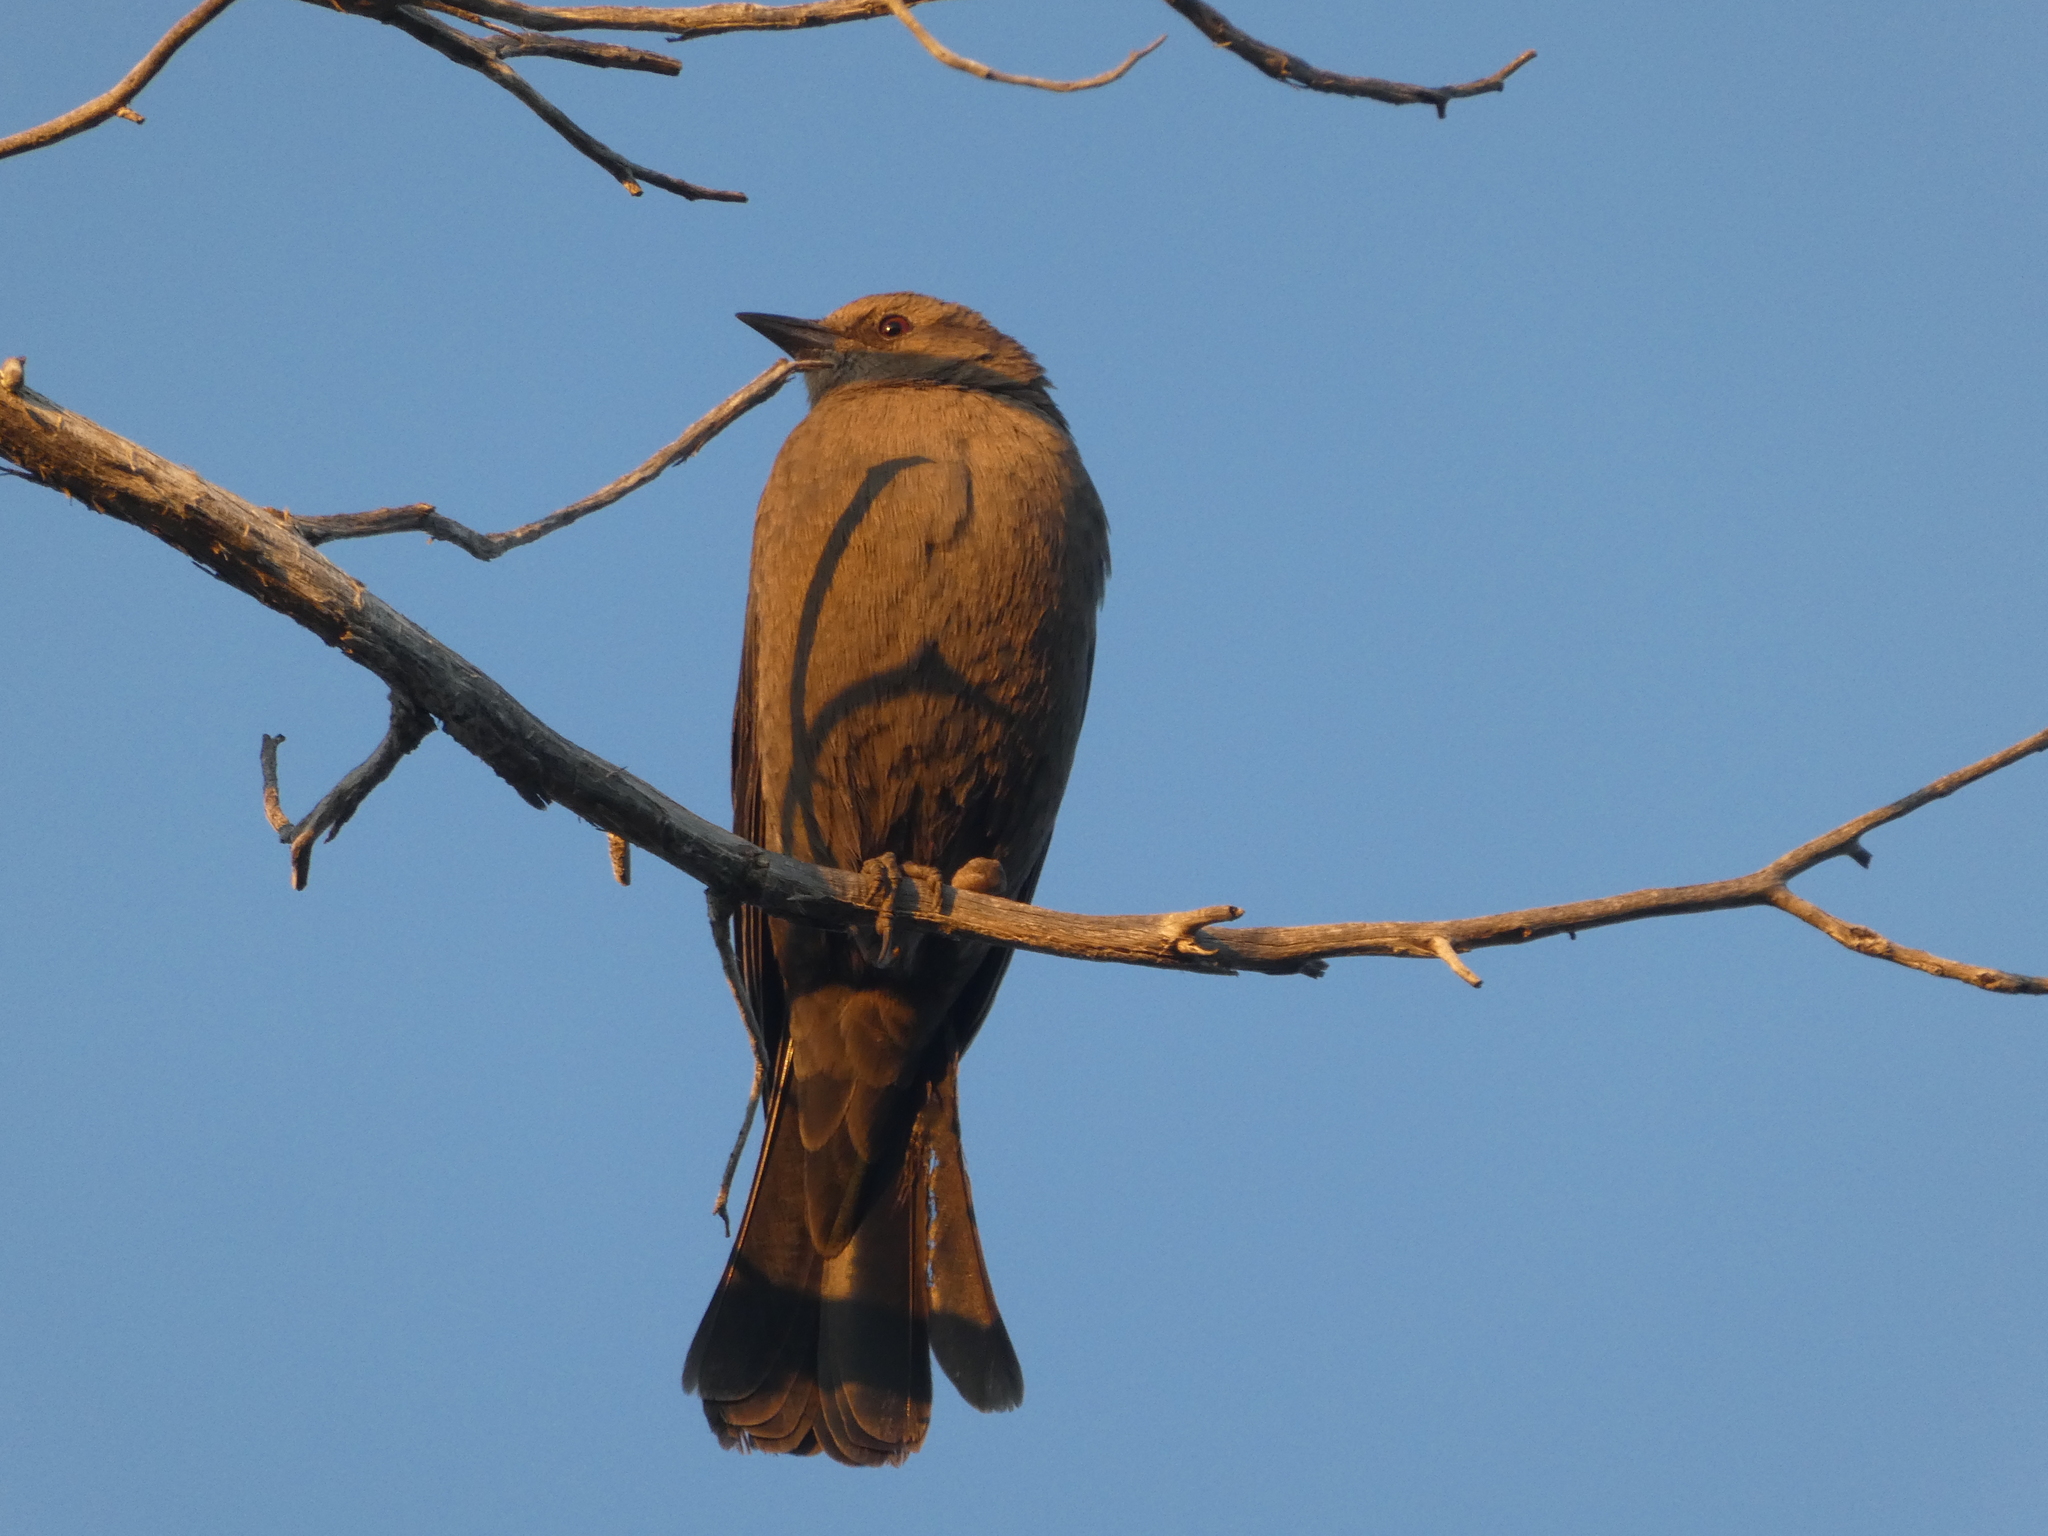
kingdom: Animalia
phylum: Chordata
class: Aves
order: Passeriformes
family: Icteridae
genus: Euphagus
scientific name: Euphagus cyanocephalus
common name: Brewer's blackbird
